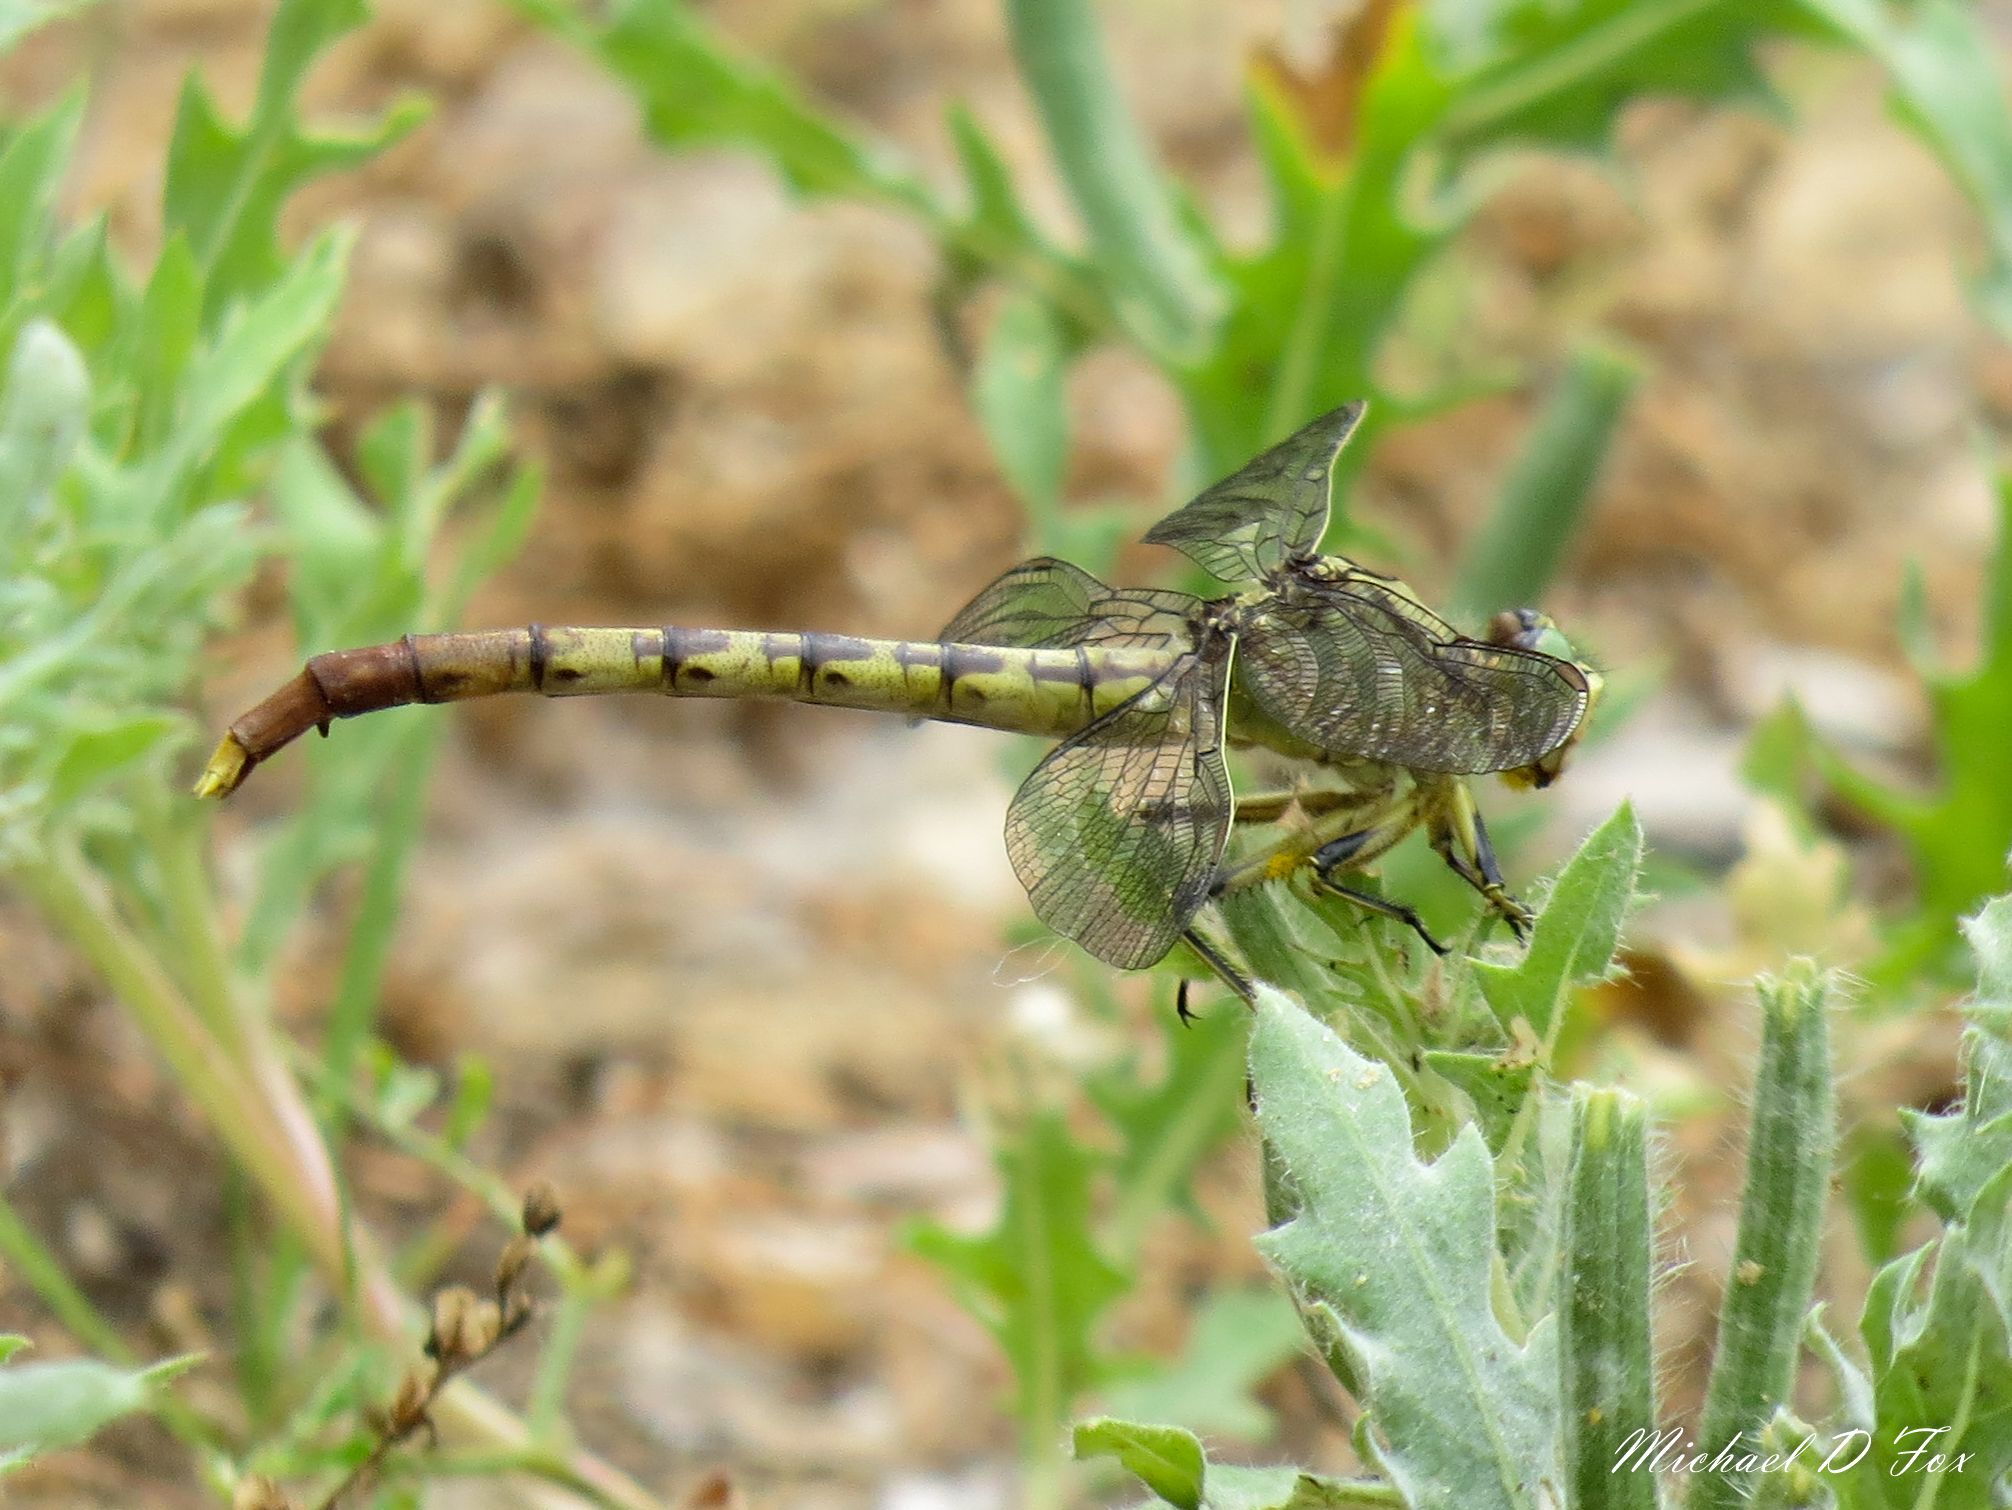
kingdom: Animalia
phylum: Arthropoda
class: Insecta
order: Odonata
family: Gomphidae
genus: Arigomphus
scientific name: Arigomphus submedianus
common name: Jade clubtail
